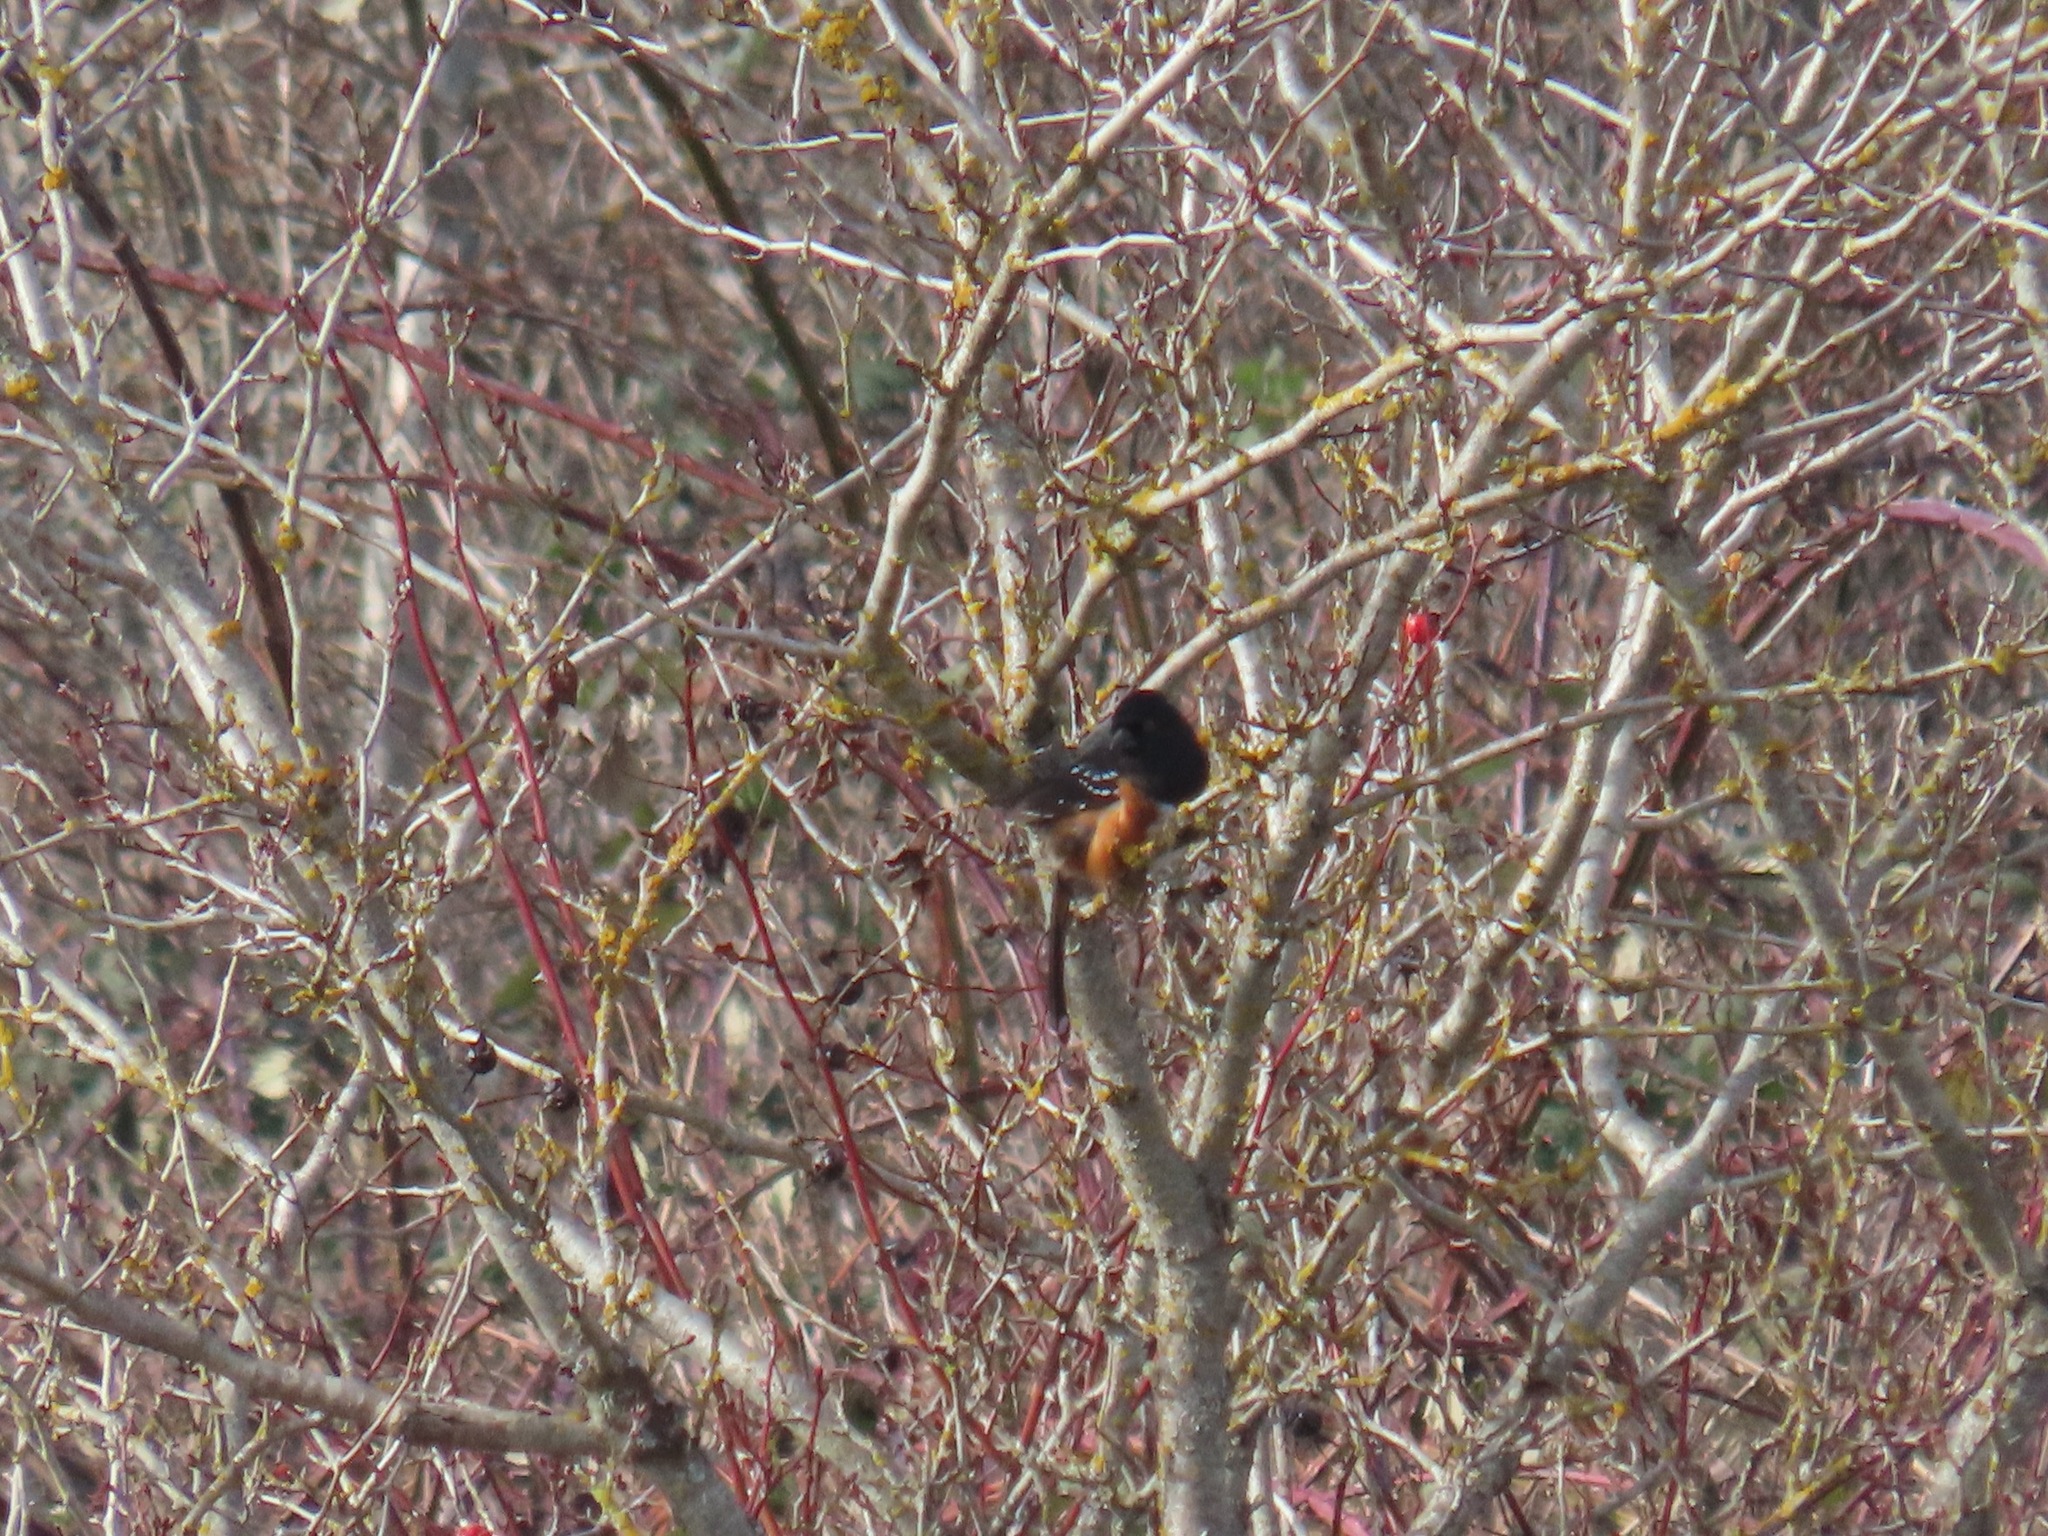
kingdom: Animalia
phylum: Chordata
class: Aves
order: Passeriformes
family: Passerellidae
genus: Pipilo
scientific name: Pipilo maculatus
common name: Spotted towhee
